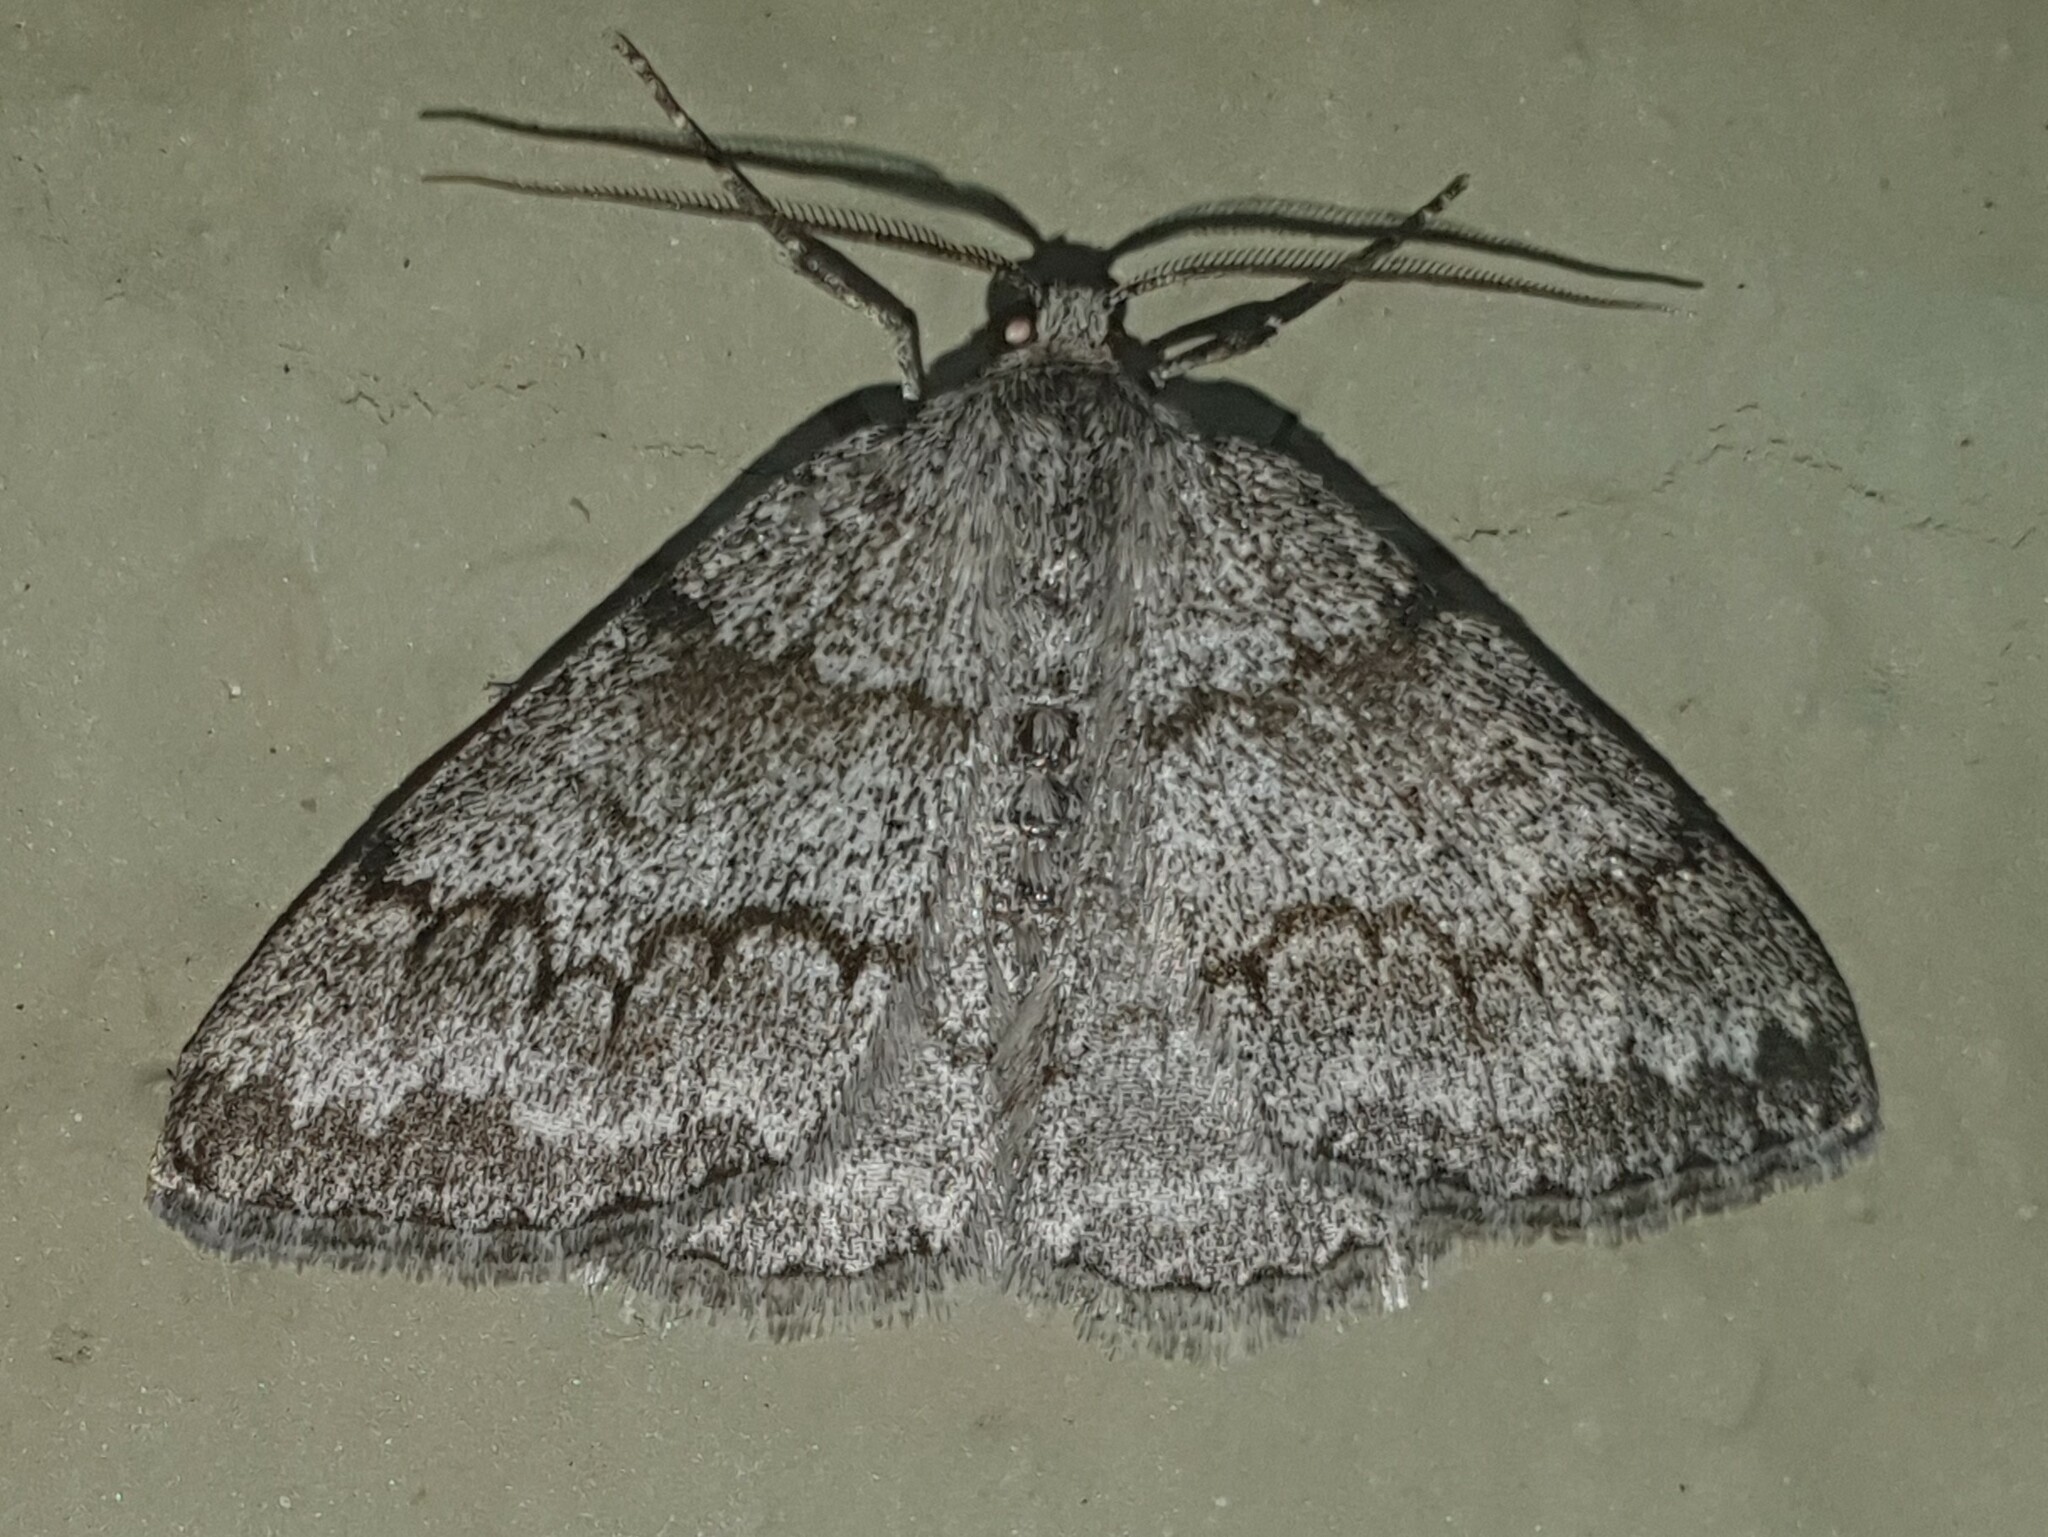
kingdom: Animalia
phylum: Arthropoda
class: Insecta
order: Lepidoptera
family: Geometridae
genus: Pseudoterpna
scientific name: Pseudoterpna coronillaria
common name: Jersey emerald
